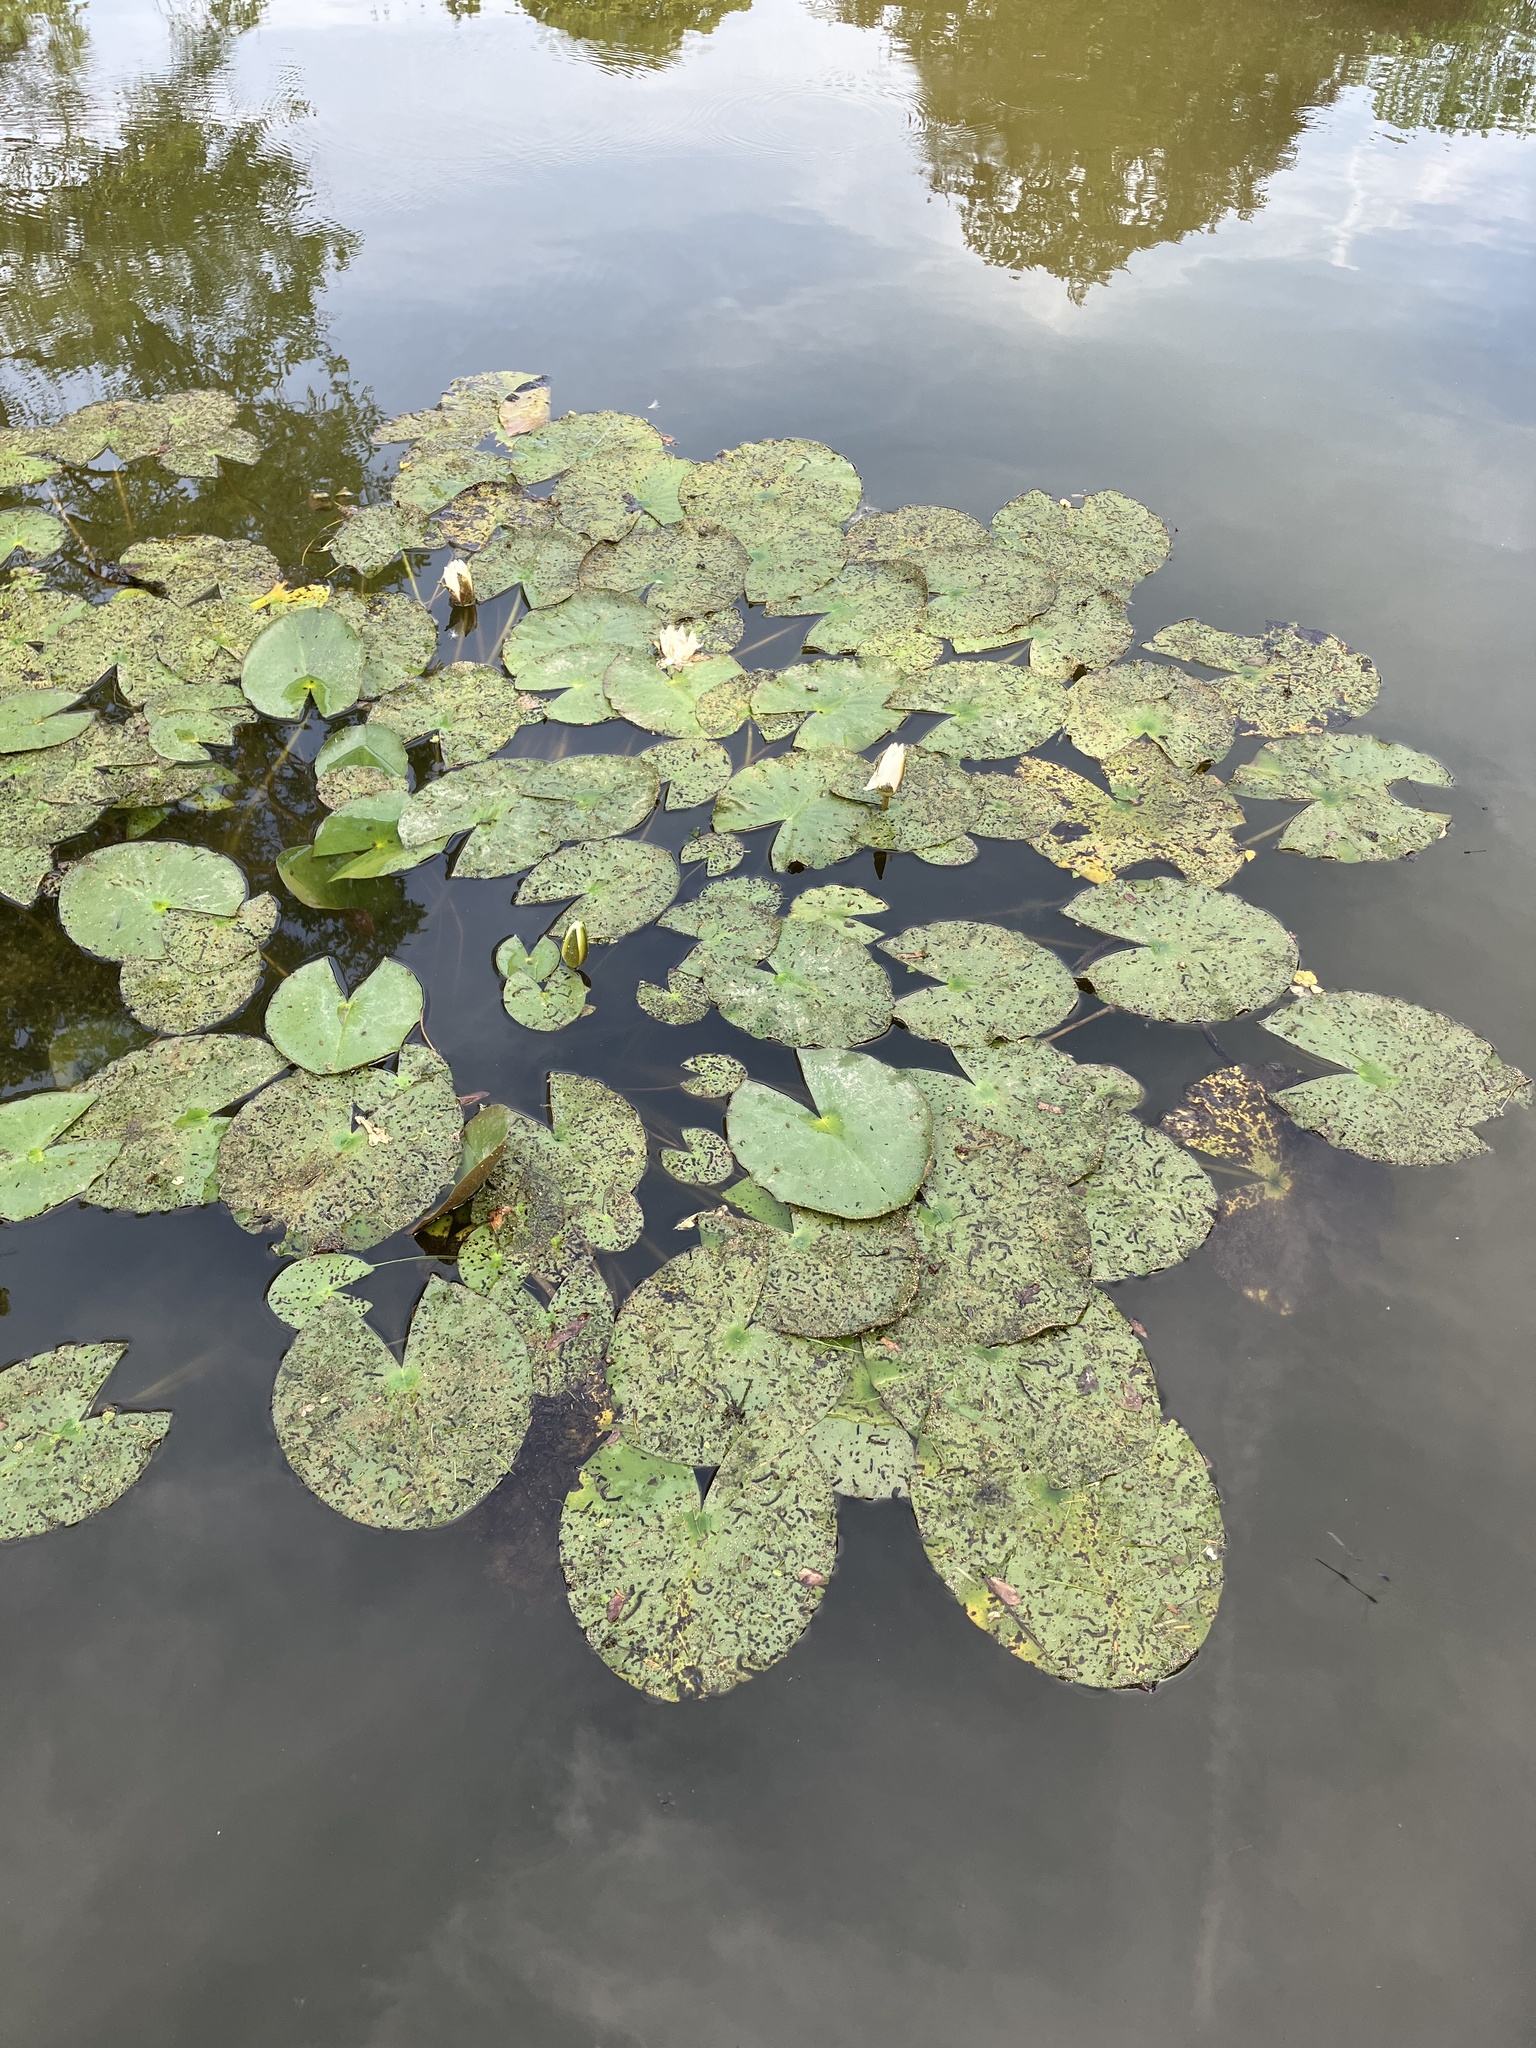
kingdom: Plantae
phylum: Tracheophyta
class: Magnoliopsida
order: Nymphaeales
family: Nymphaeaceae
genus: Nymphaea
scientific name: Nymphaea alba
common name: White water-lily
